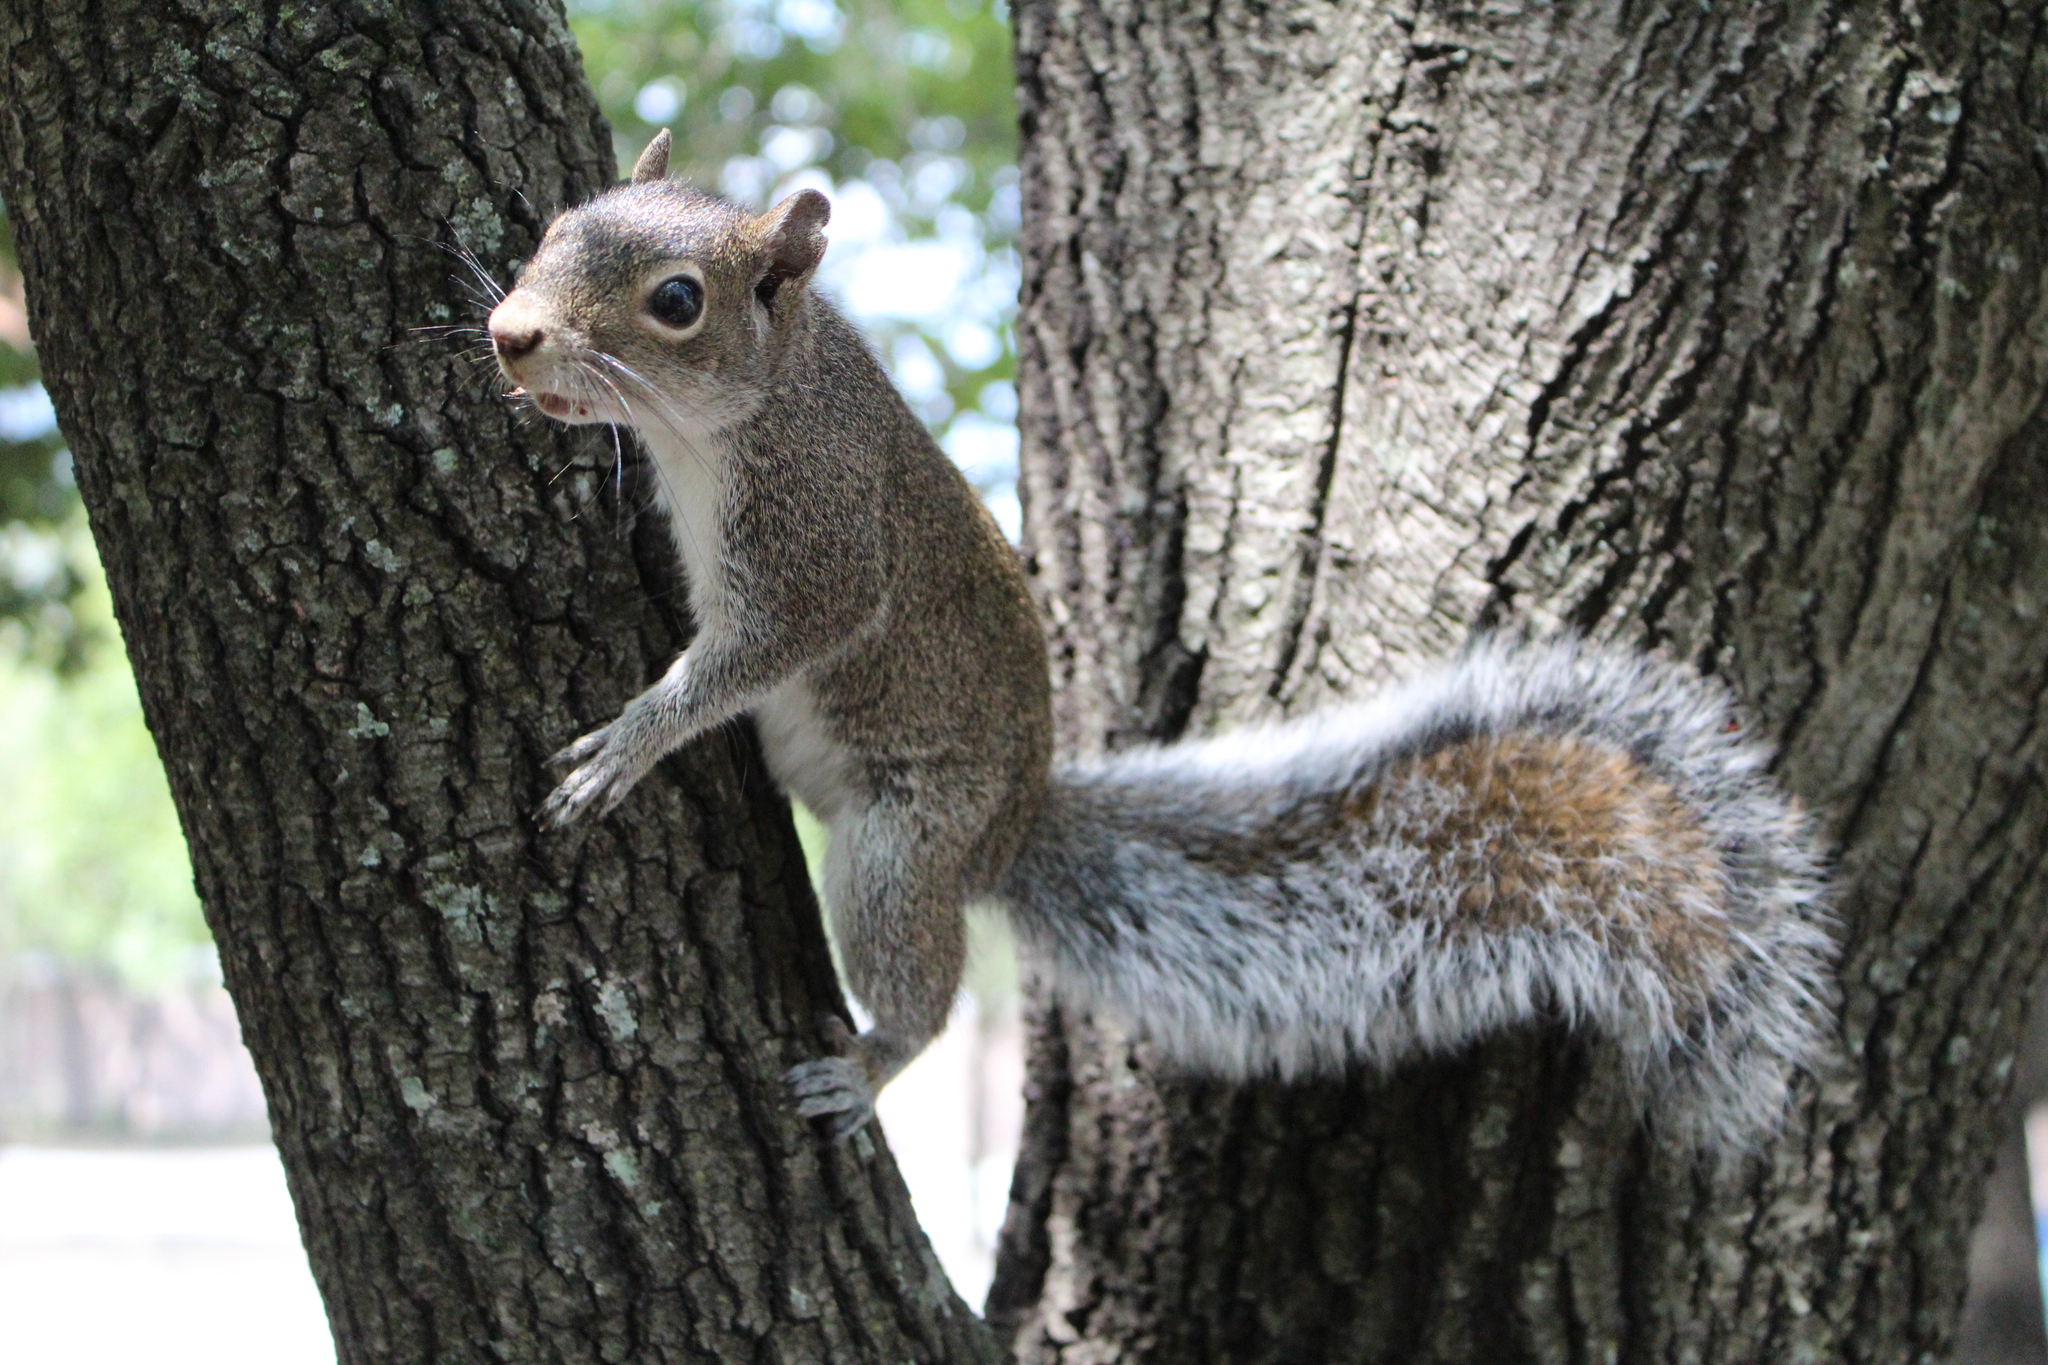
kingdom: Animalia
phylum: Chordata
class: Mammalia
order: Rodentia
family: Sciuridae
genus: Sciurus
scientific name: Sciurus alleni
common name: Allen's squirrel
